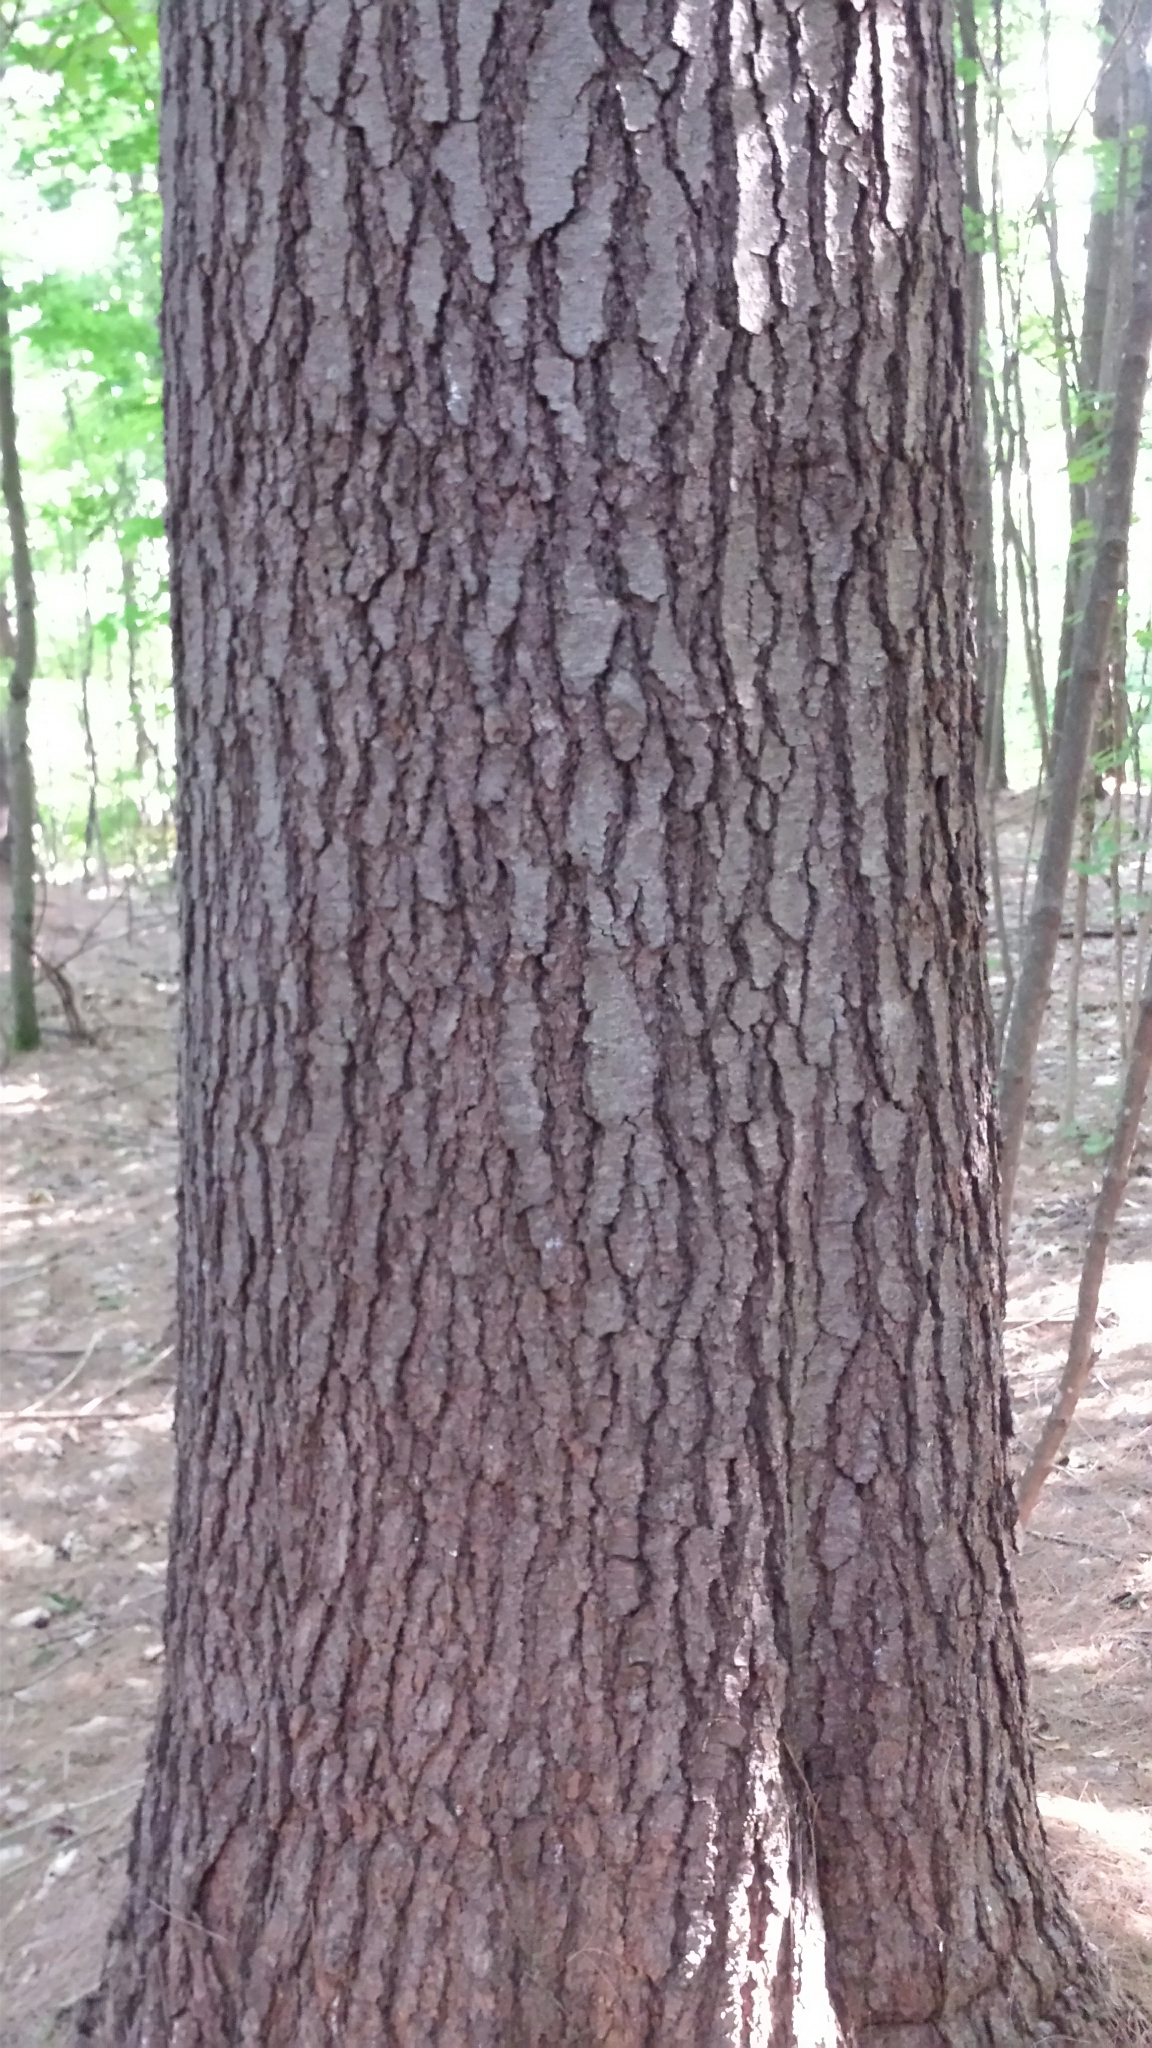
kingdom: Plantae
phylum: Tracheophyta
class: Pinopsida
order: Pinales
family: Pinaceae
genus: Pinus
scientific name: Pinus strobus
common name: Weymouth pine
